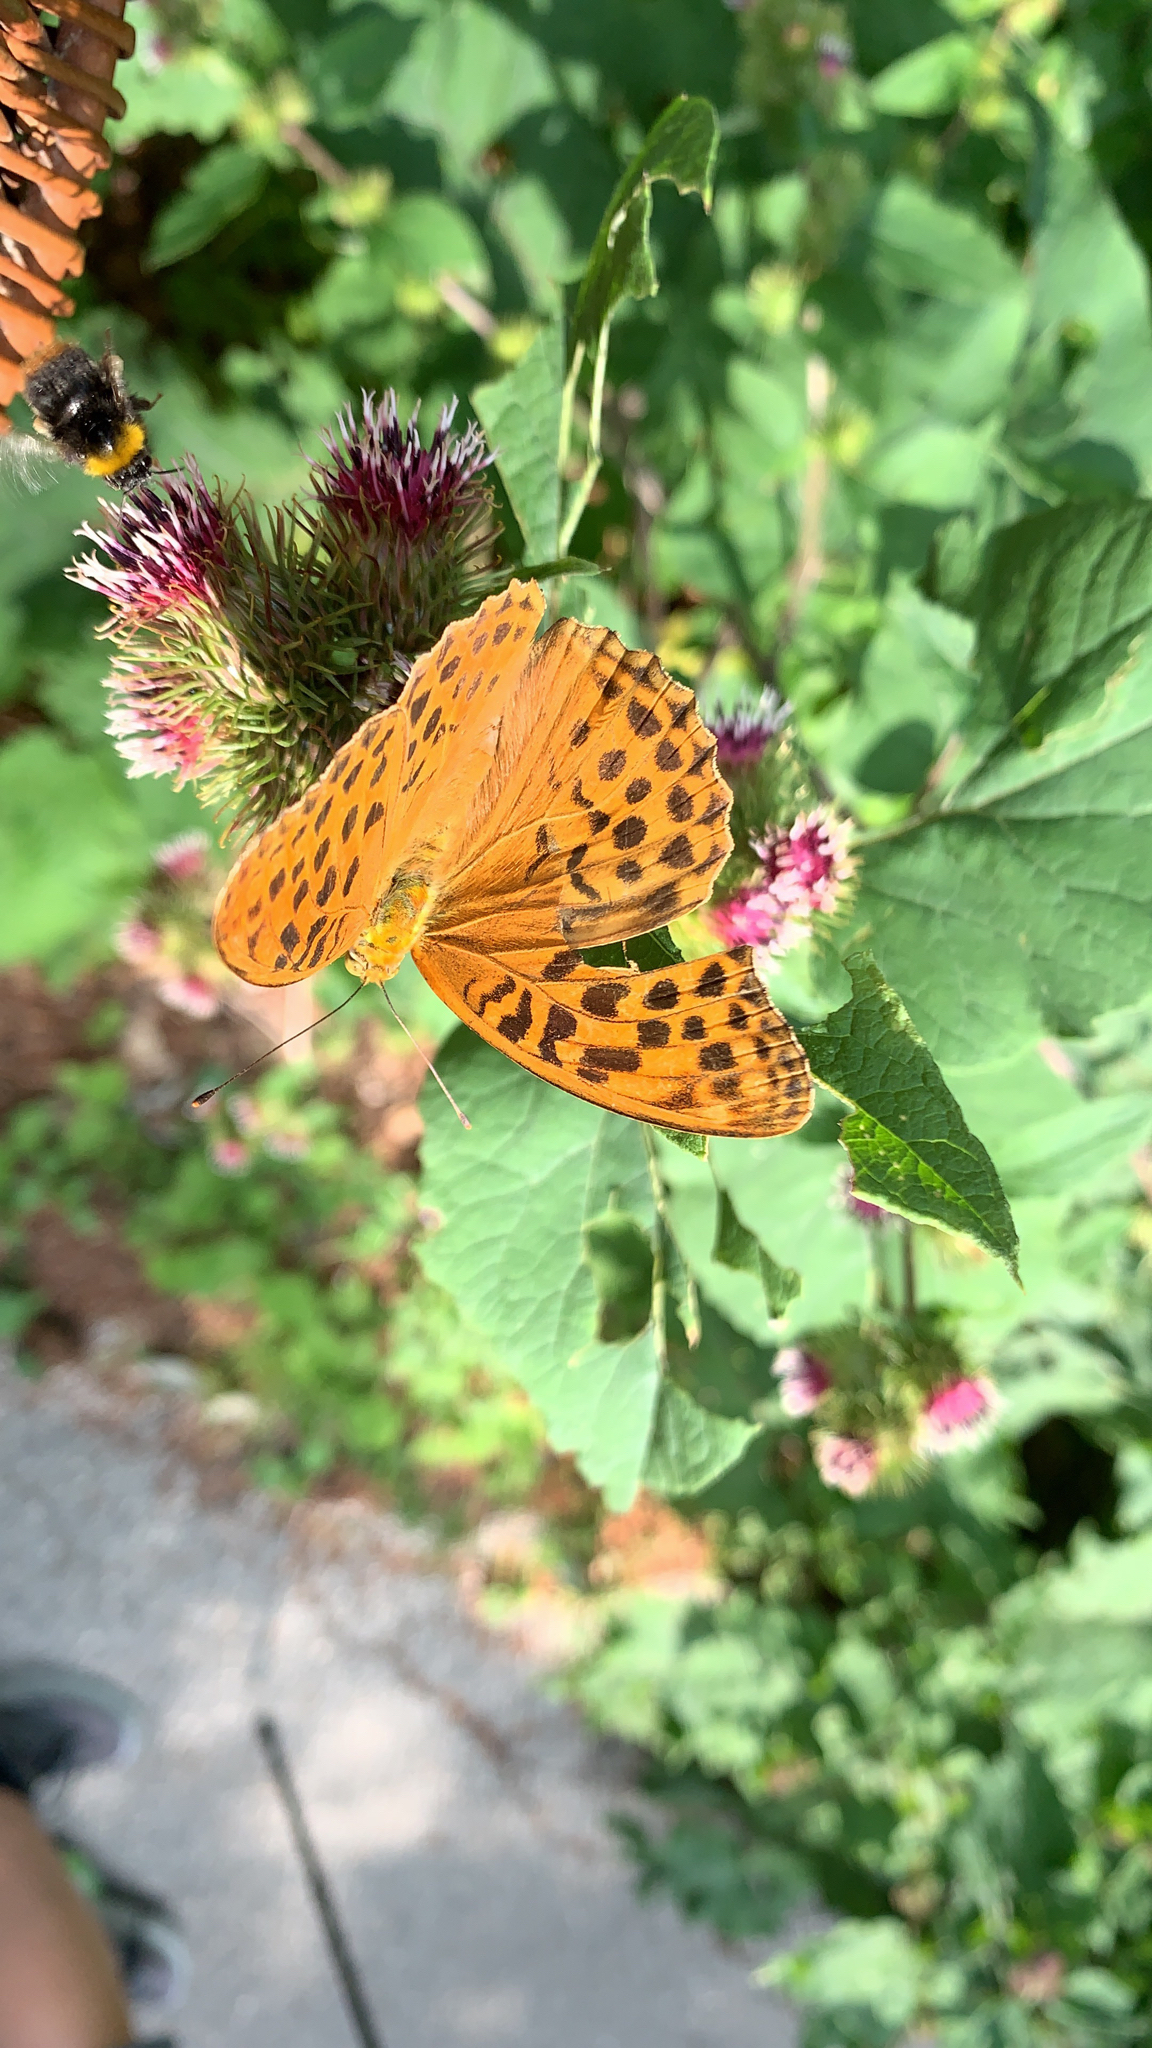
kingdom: Animalia
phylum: Arthropoda
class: Insecta
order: Lepidoptera
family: Nymphalidae
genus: Argynnis
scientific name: Argynnis paphia
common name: Silver-washed fritillary
